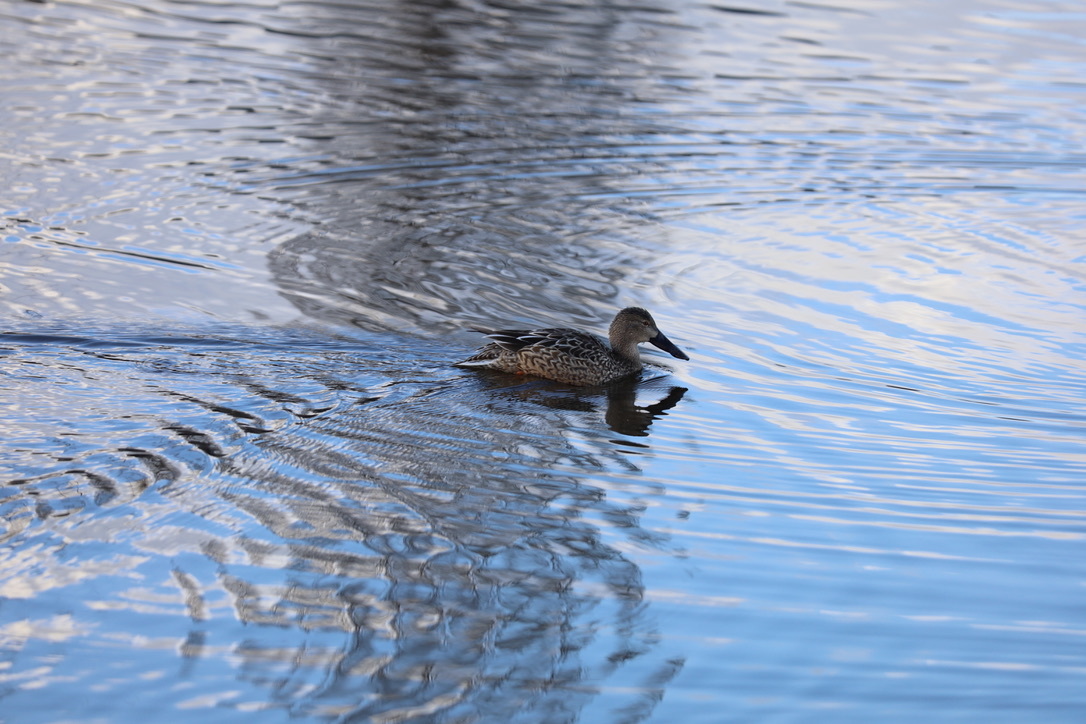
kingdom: Animalia
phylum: Chordata
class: Aves
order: Anseriformes
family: Anatidae
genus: Spatula
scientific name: Spatula clypeata
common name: Northern shoveler
